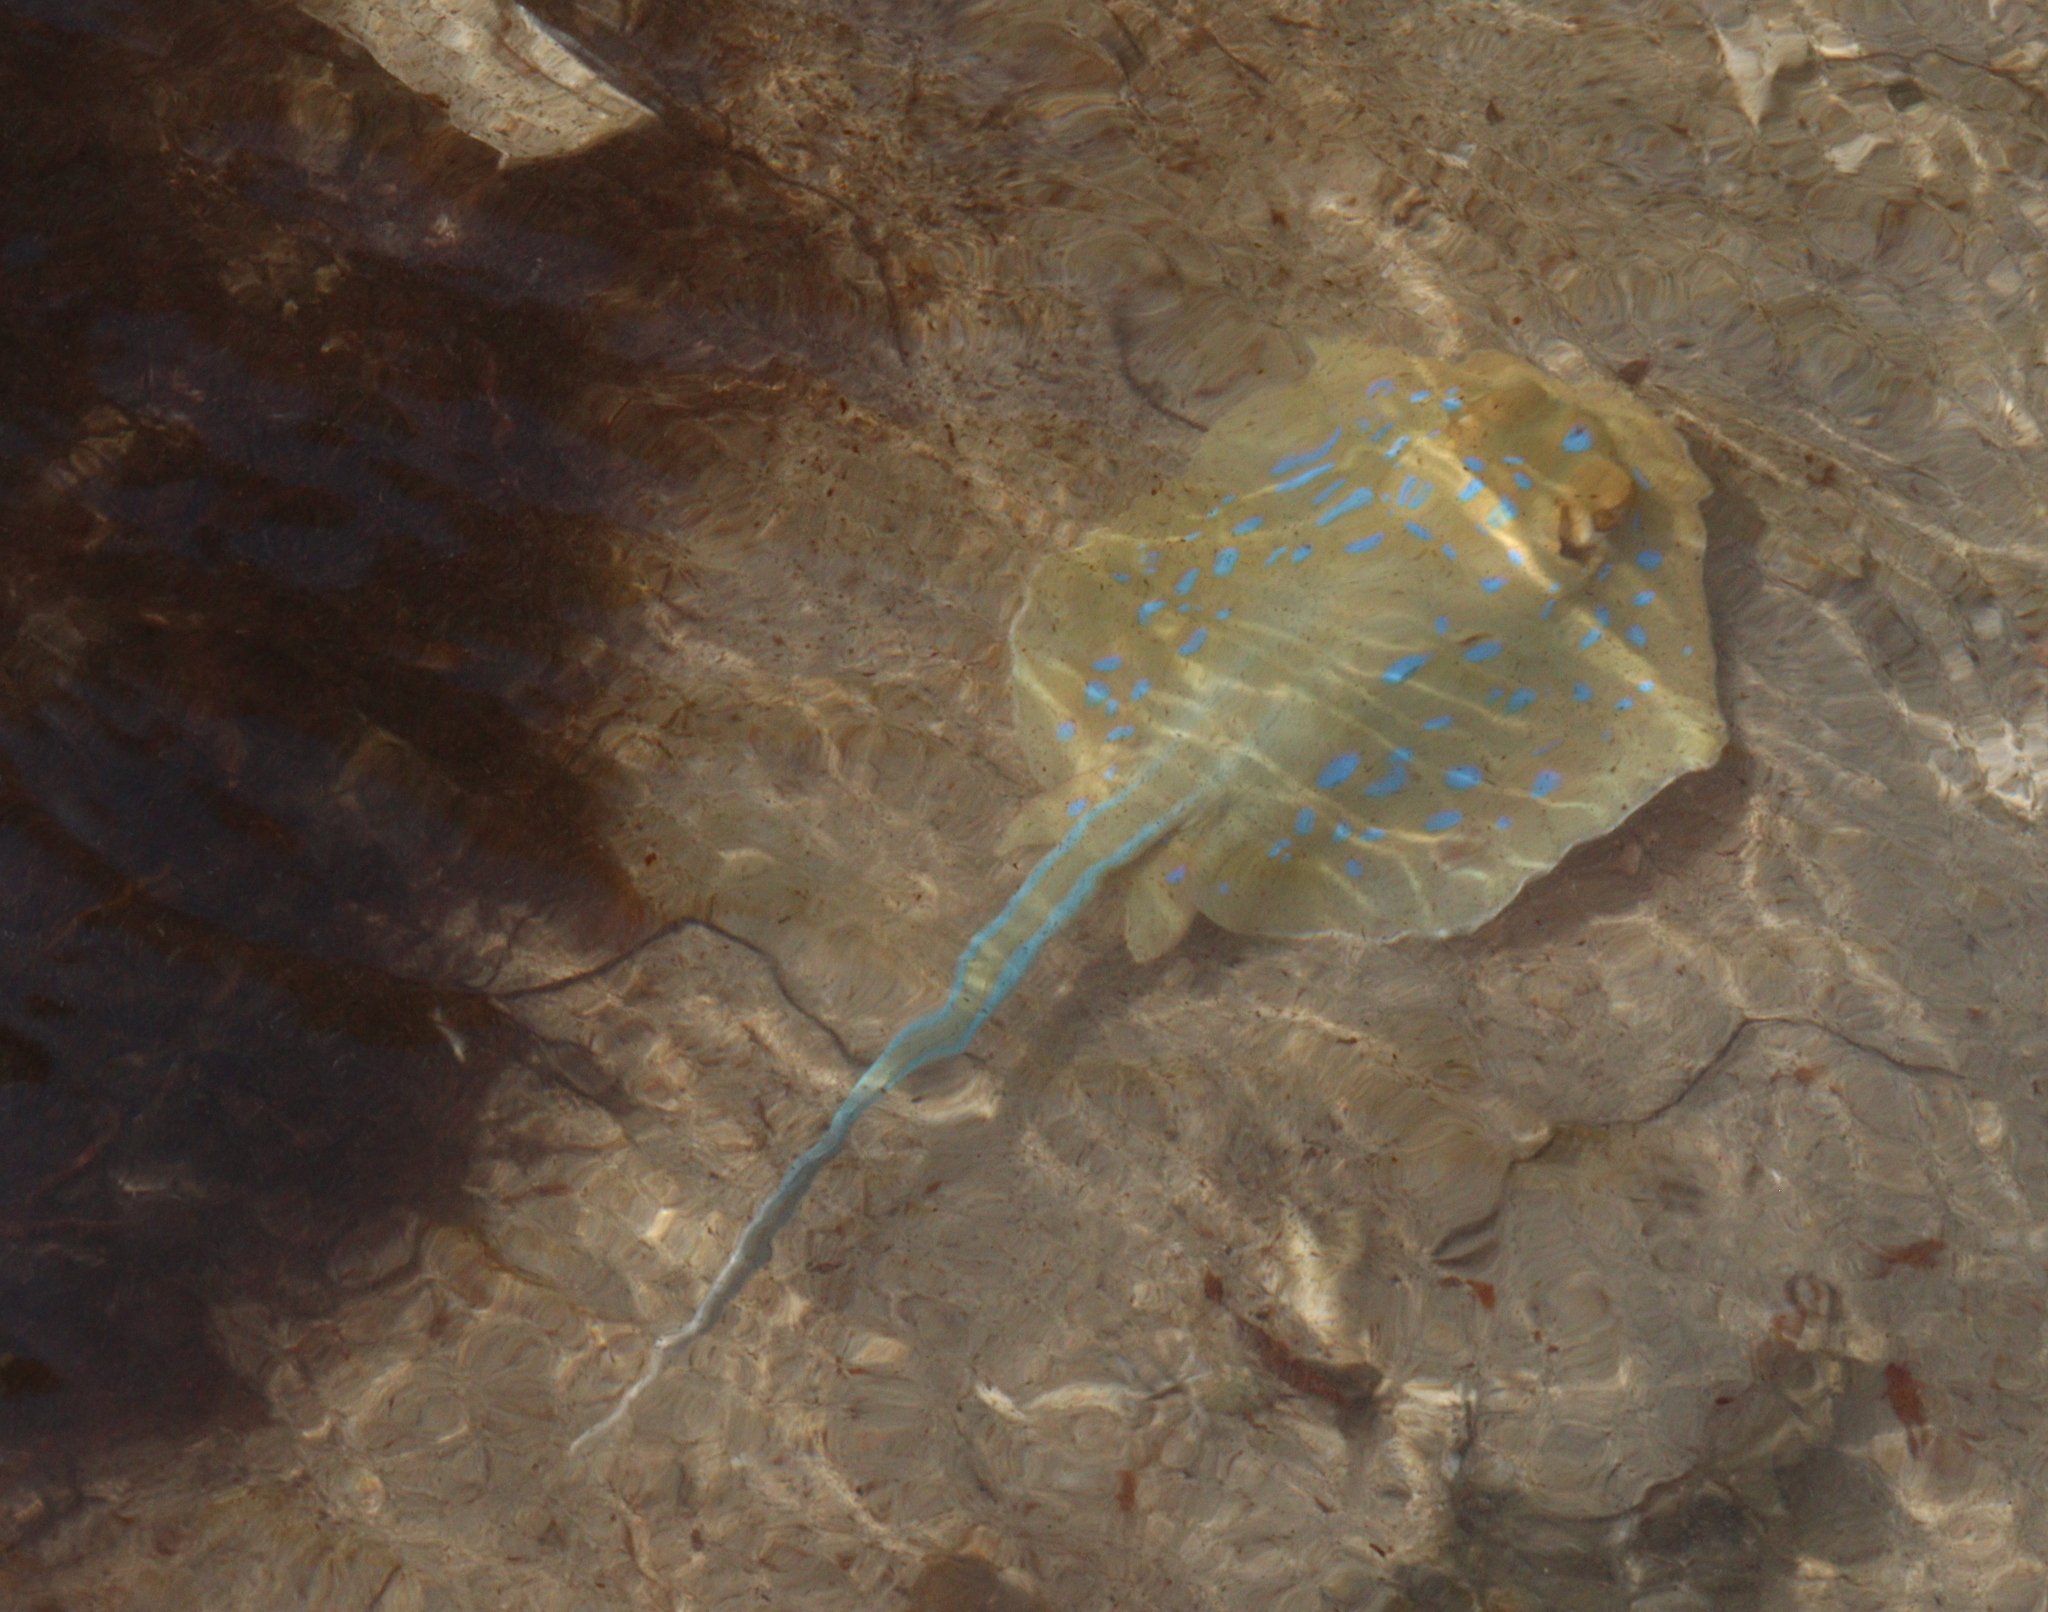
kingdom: Animalia
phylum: Chordata
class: Elasmobranchii
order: Myliobatiformes
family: Dasyatidae
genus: Taeniura
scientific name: Taeniura lymma
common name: Bluespotted ribbontail ray
